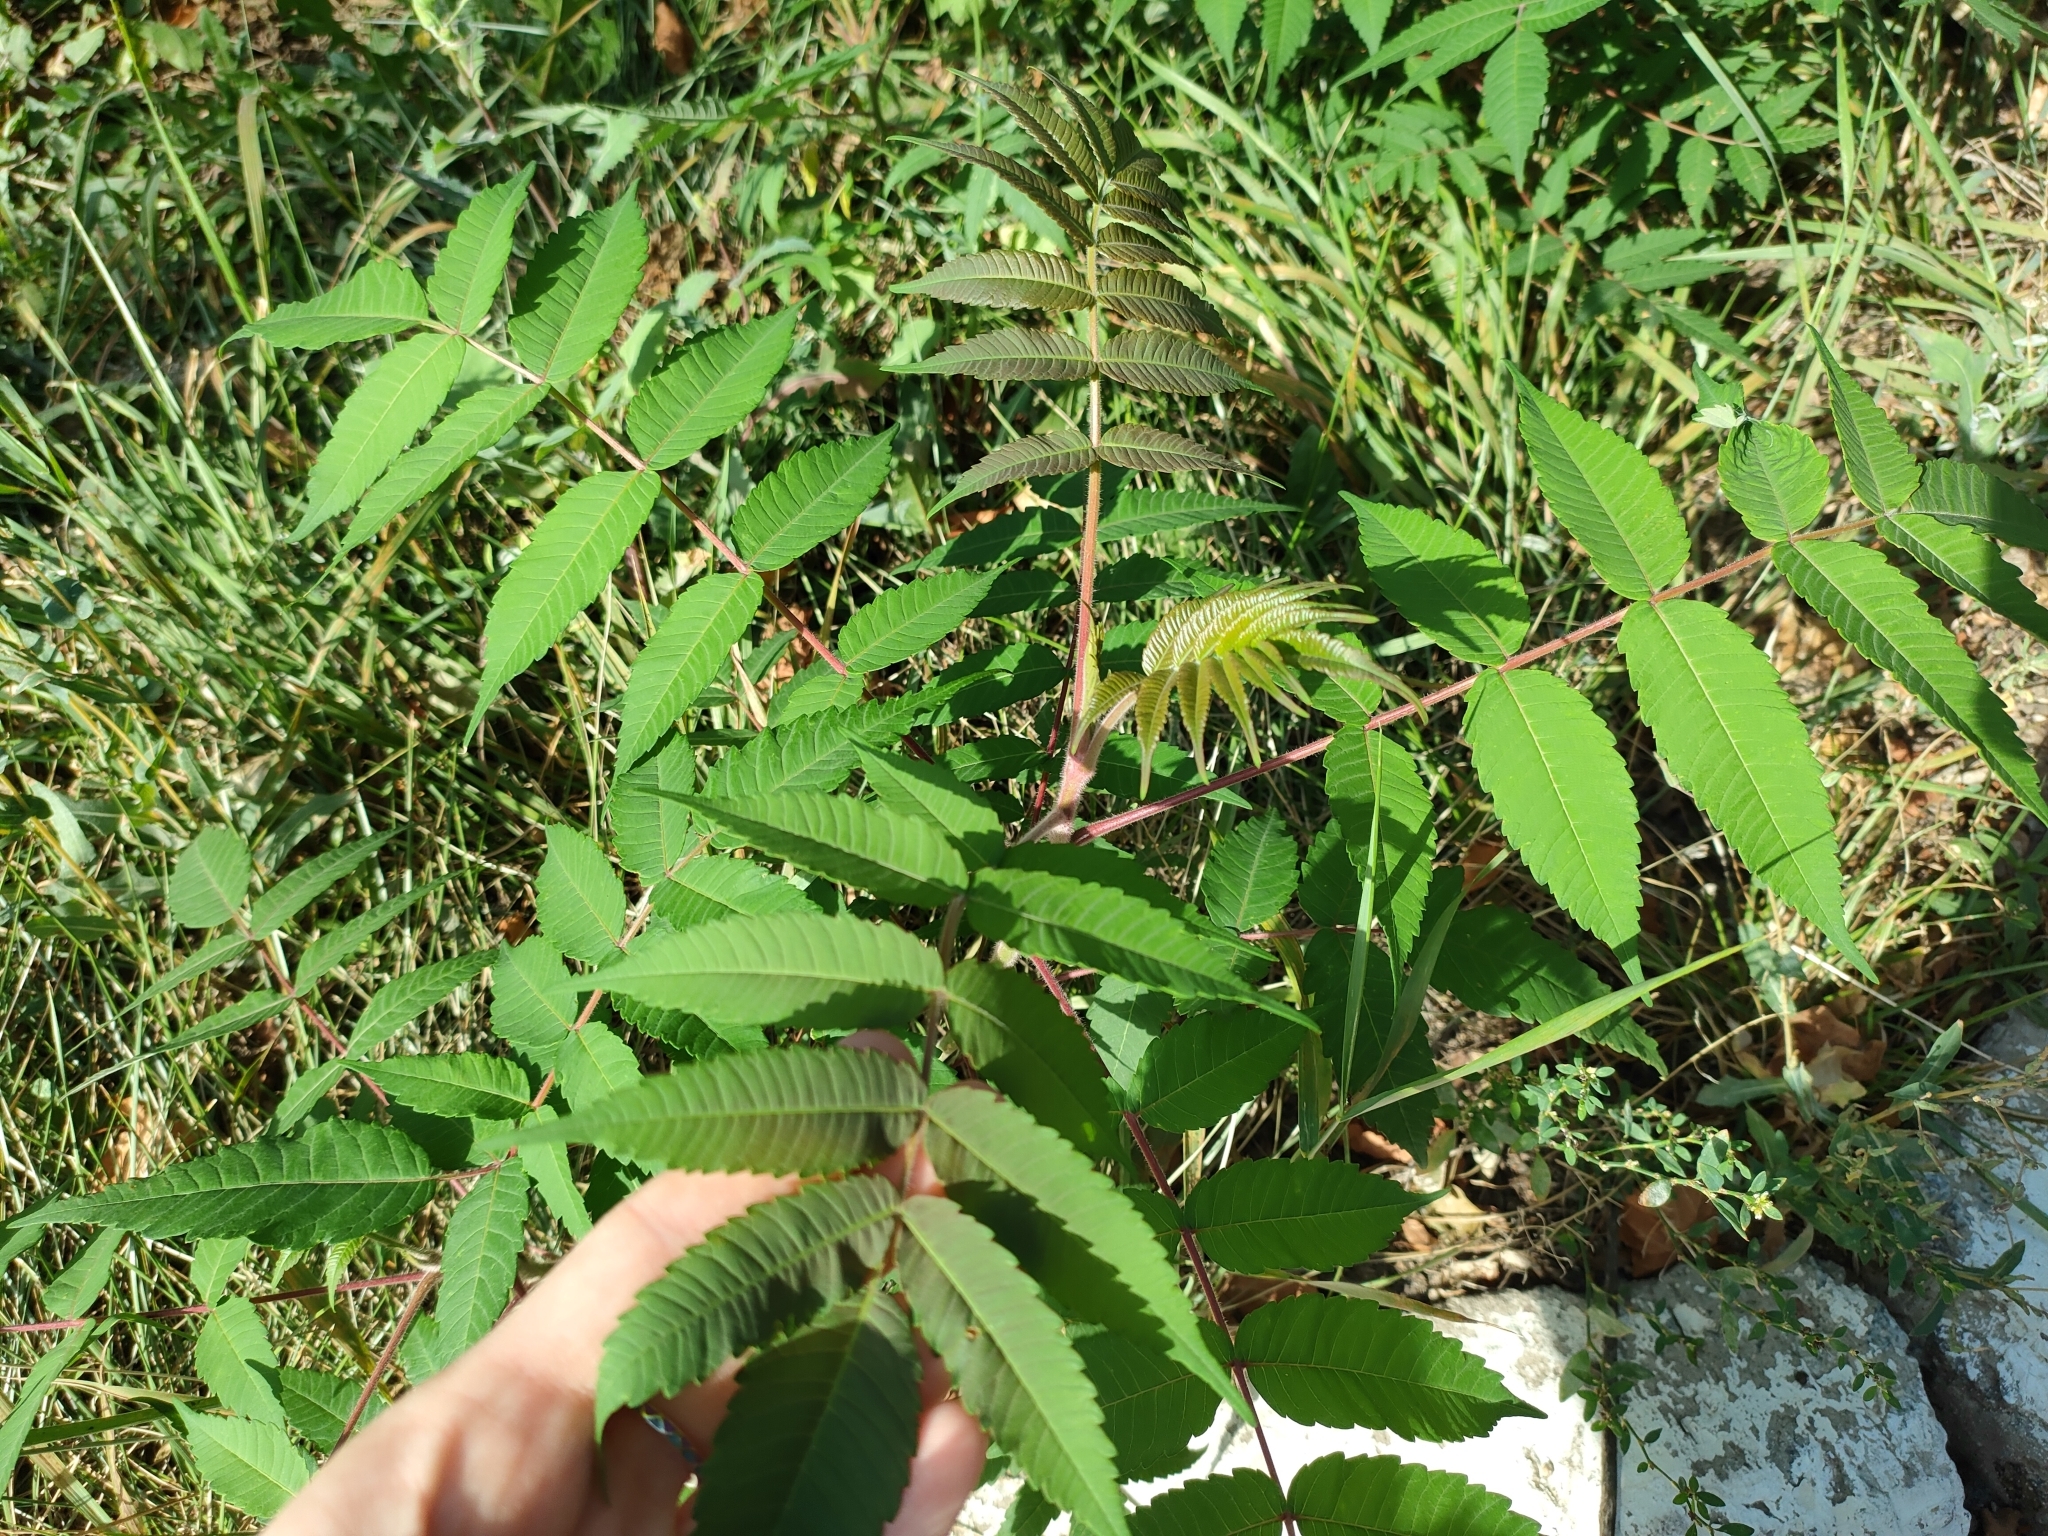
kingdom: Plantae
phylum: Tracheophyta
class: Magnoliopsida
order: Sapindales
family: Anacardiaceae
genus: Rhus
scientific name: Rhus typhina
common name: Staghorn sumac
